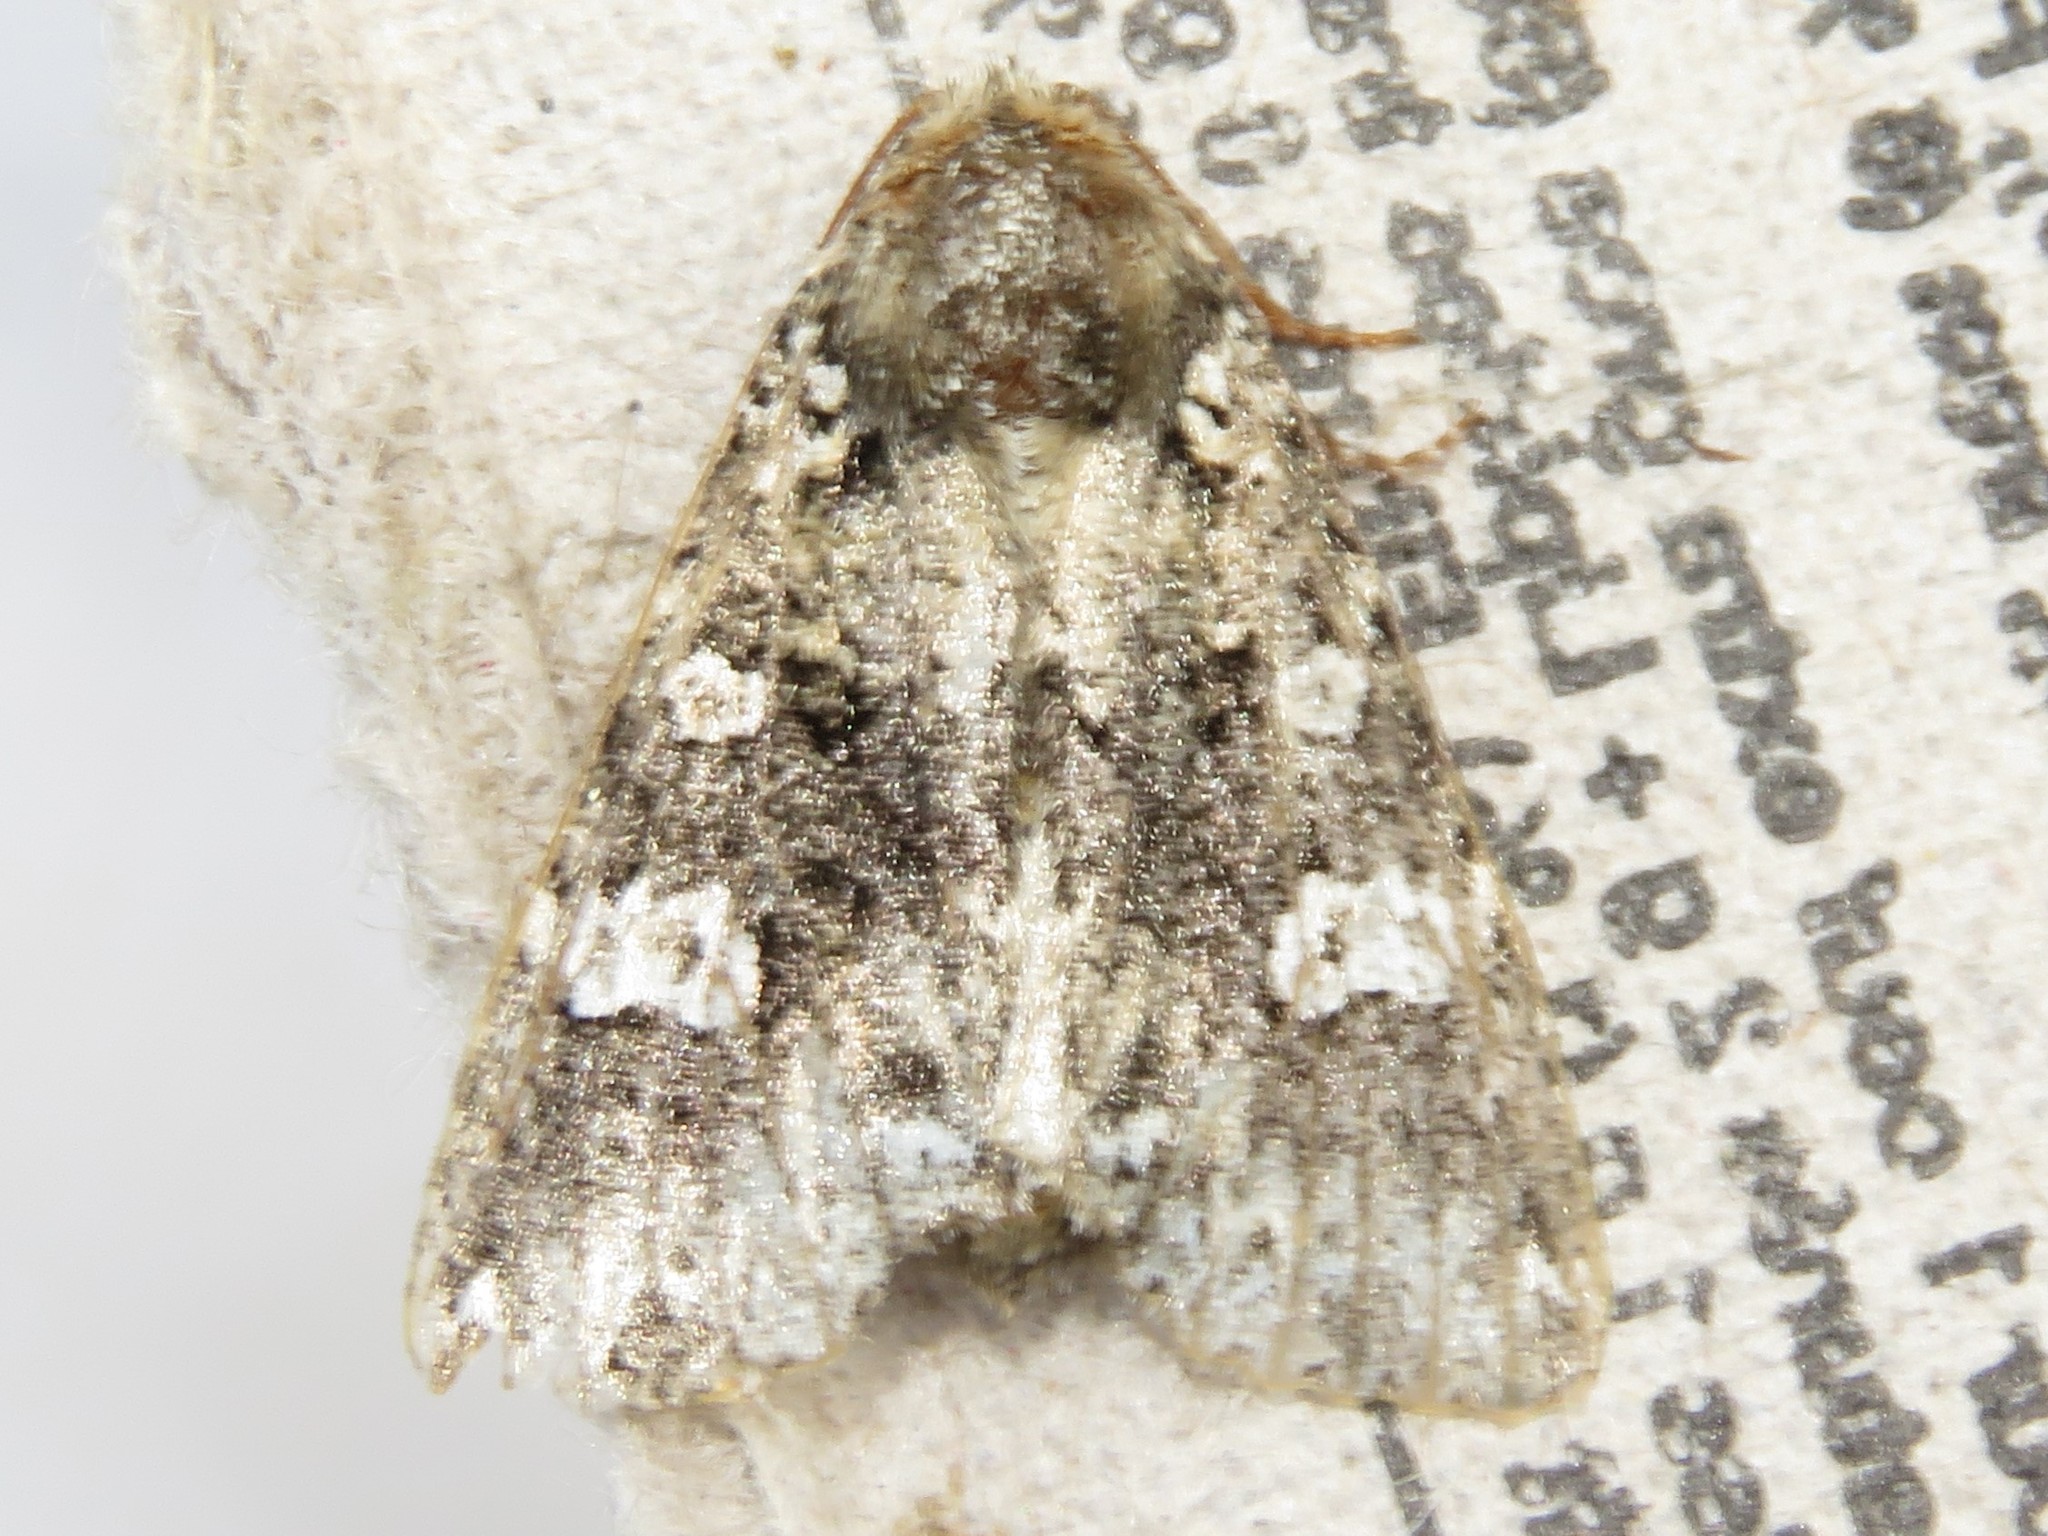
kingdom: Animalia
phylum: Arthropoda
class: Insecta
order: Lepidoptera
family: Noctuidae
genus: Melanchra
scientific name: Melanchra adjuncta
